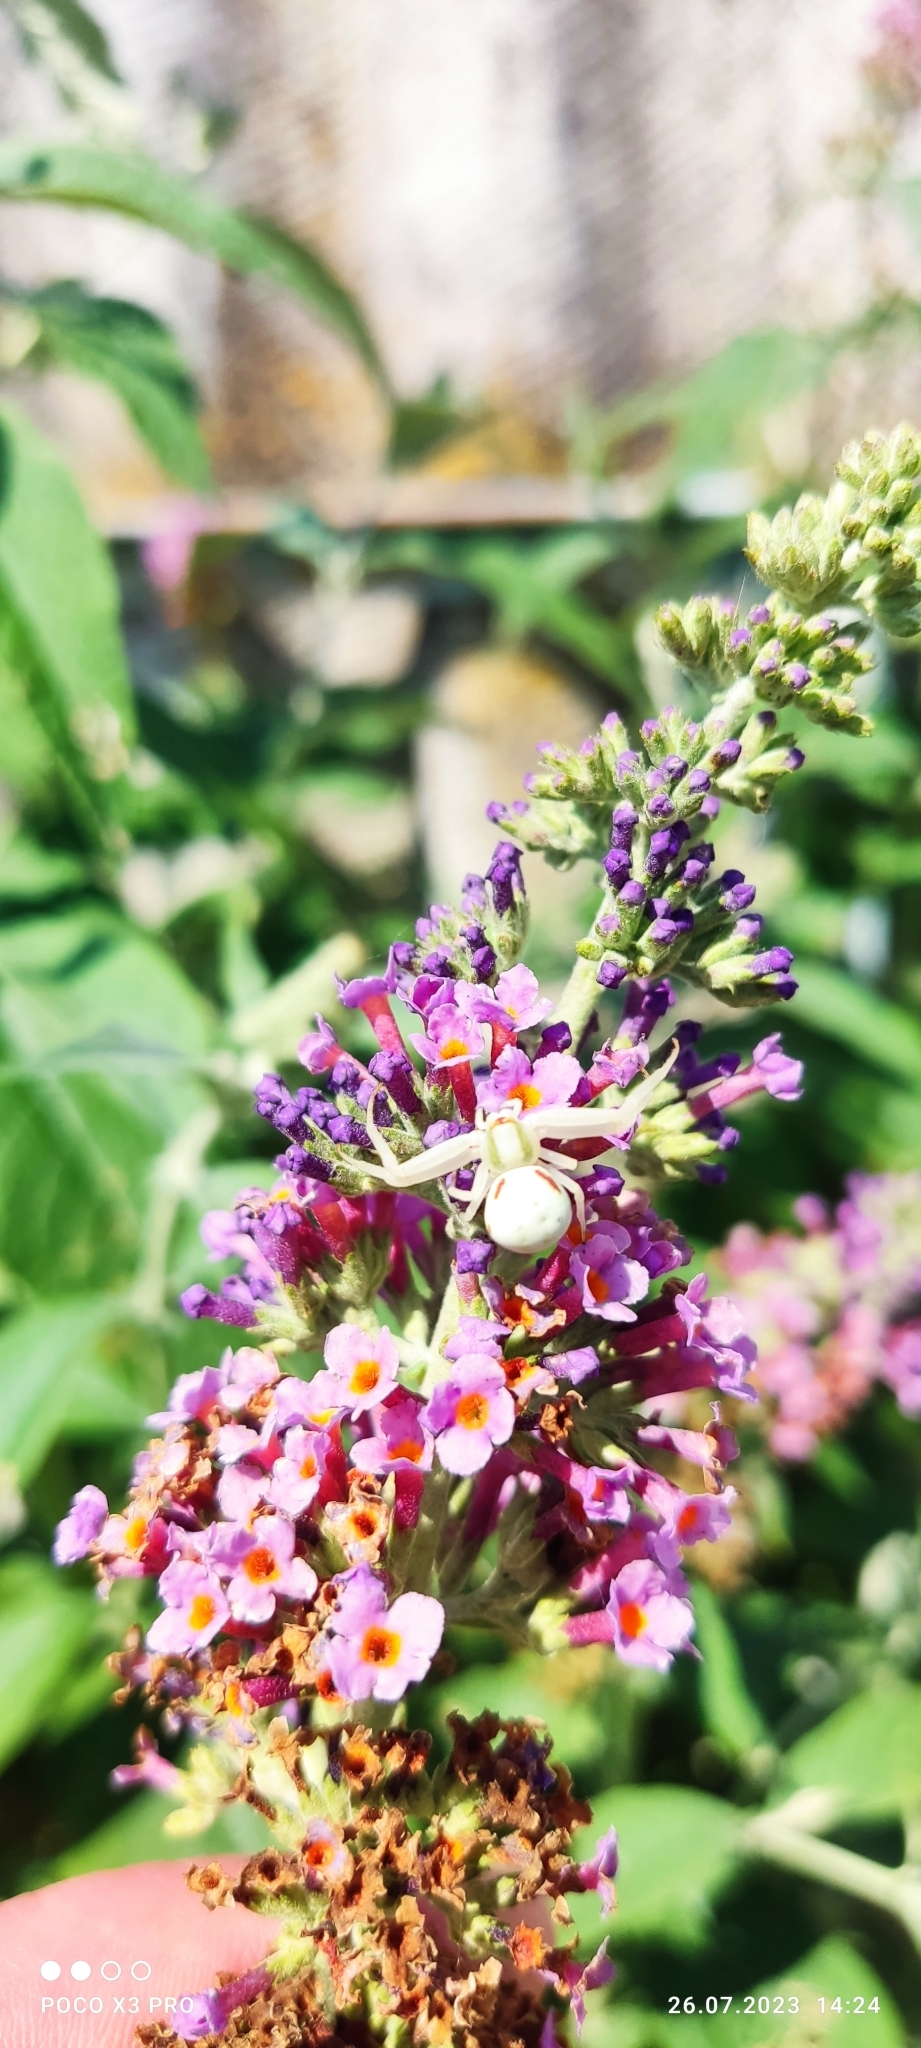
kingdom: Animalia
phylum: Arthropoda
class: Arachnida
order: Araneae
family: Thomisidae
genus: Misumena
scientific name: Misumena vatia
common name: Goldenrod crab spider
